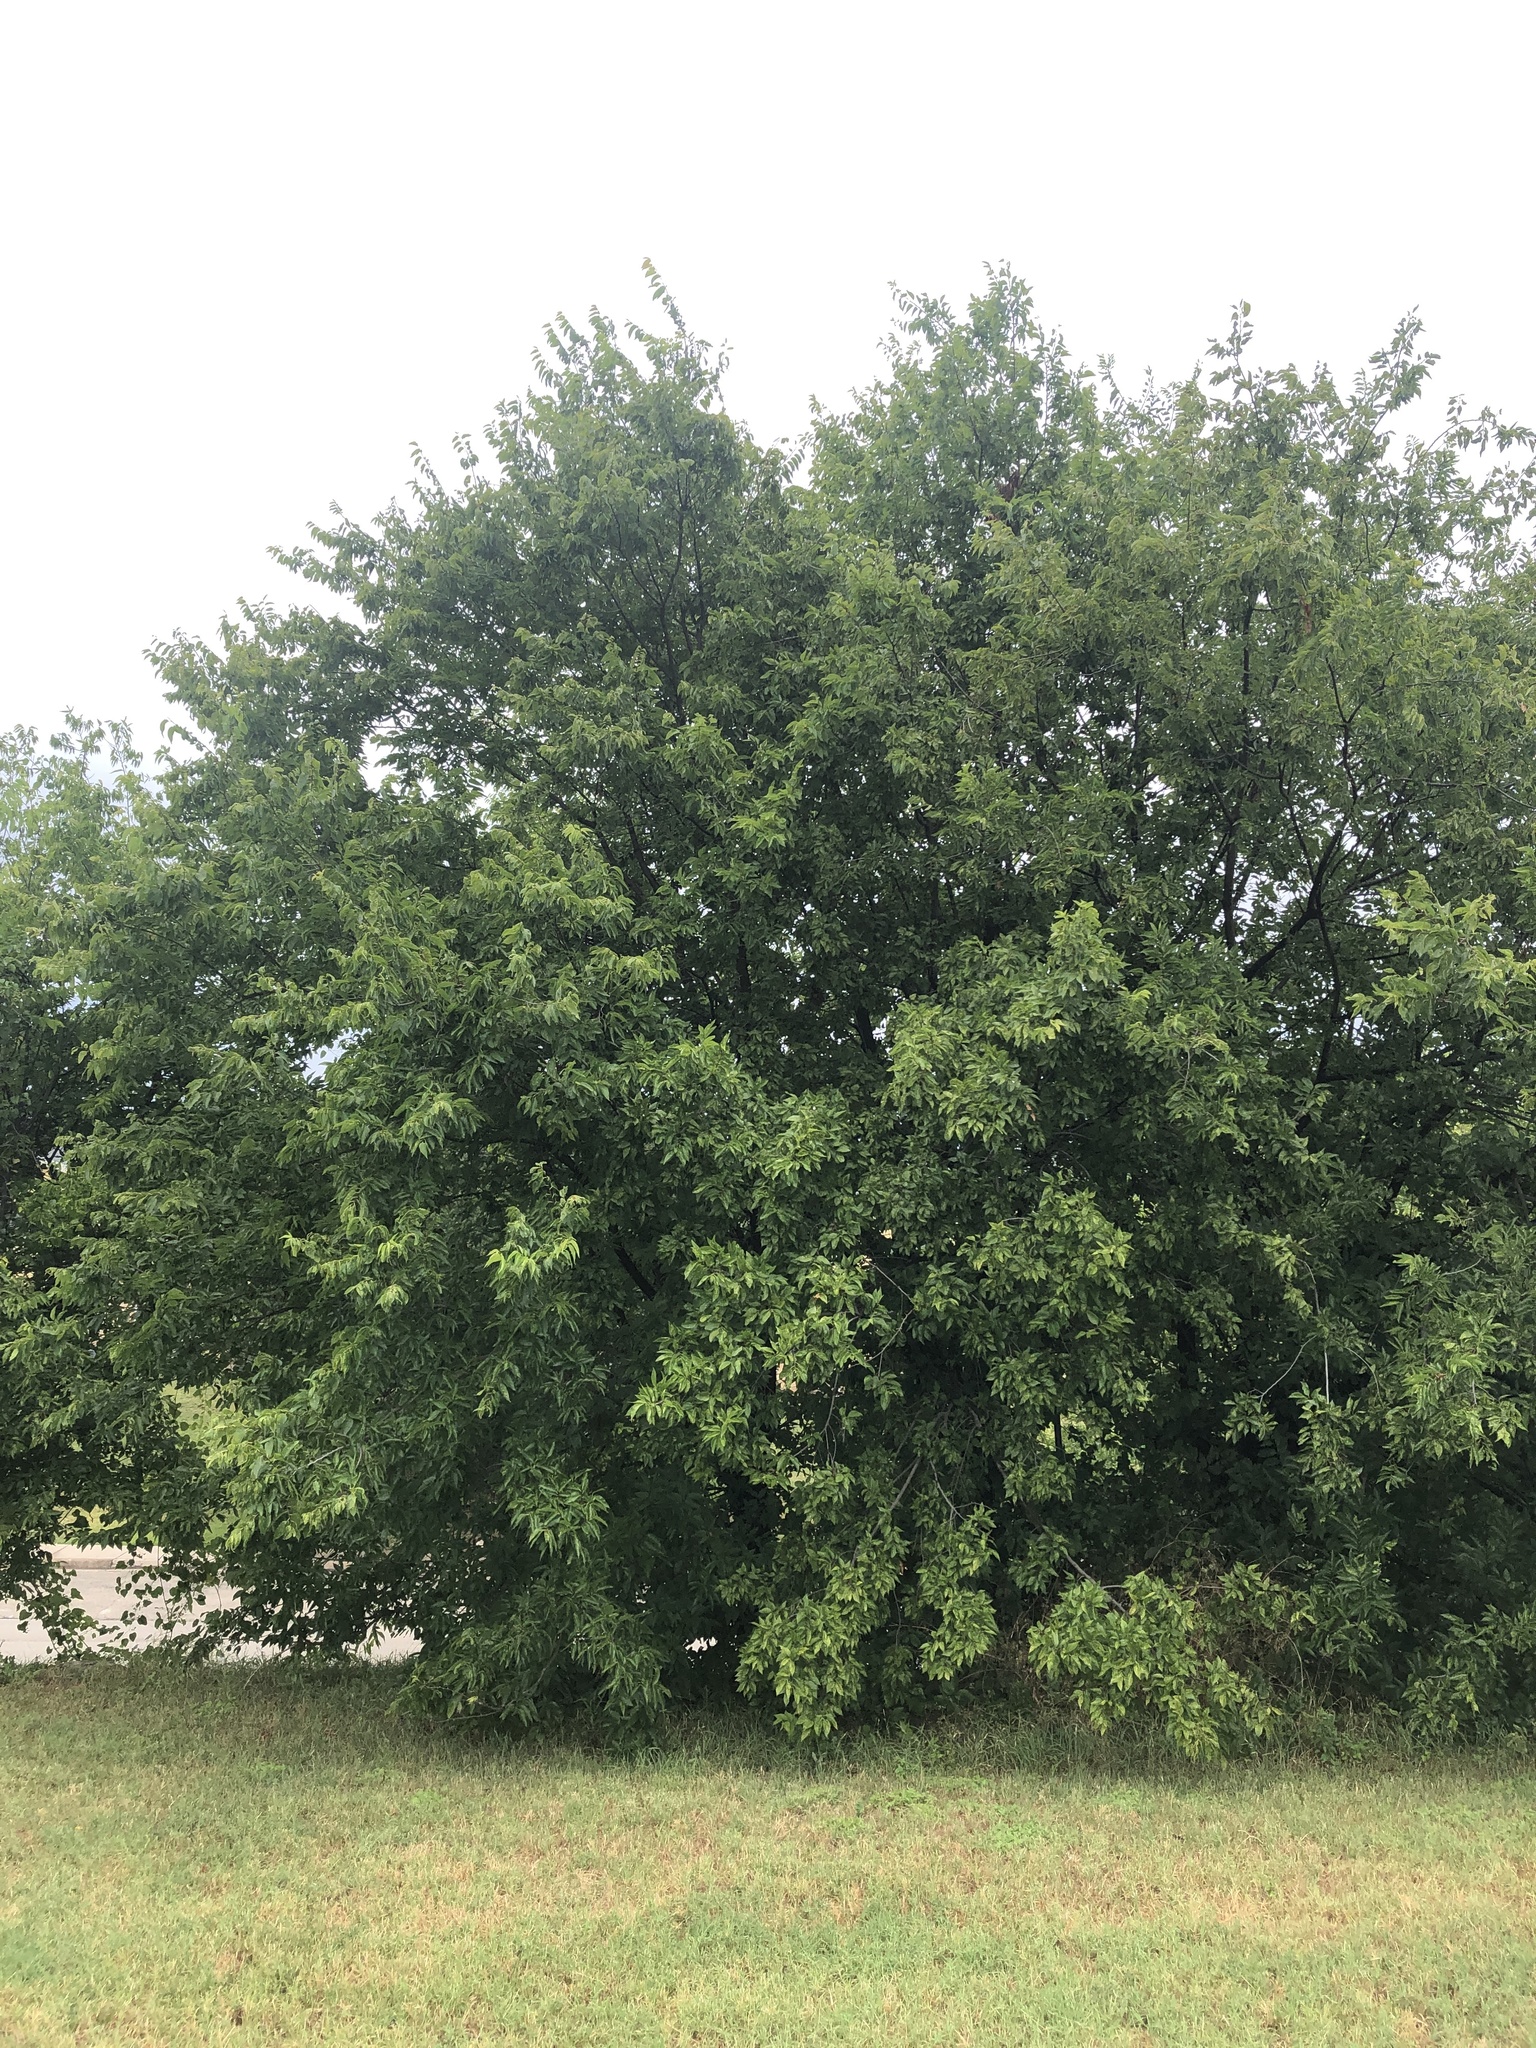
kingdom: Plantae
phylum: Tracheophyta
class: Magnoliopsida
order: Rosales
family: Cannabaceae
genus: Celtis
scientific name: Celtis laevigata
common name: Sugarberry
